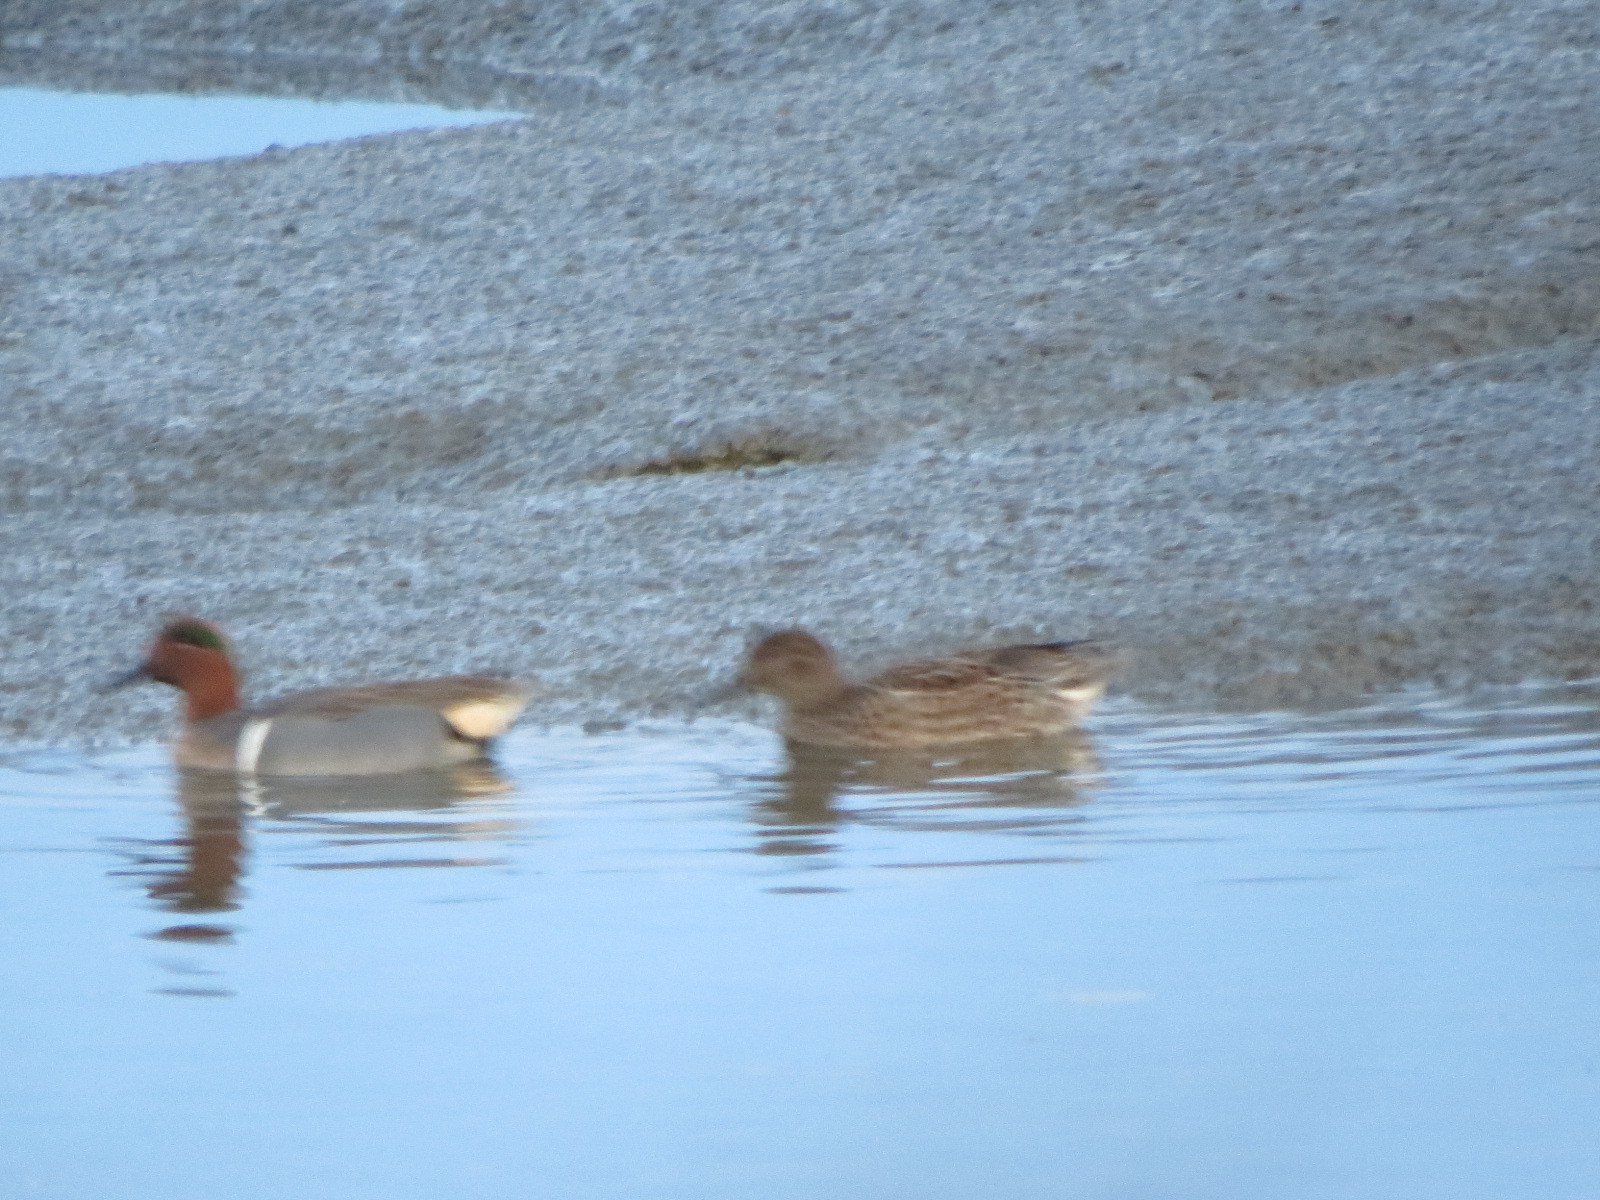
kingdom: Animalia
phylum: Chordata
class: Aves
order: Anseriformes
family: Anatidae
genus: Anas
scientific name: Anas carolinensis
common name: Green-winged teal
